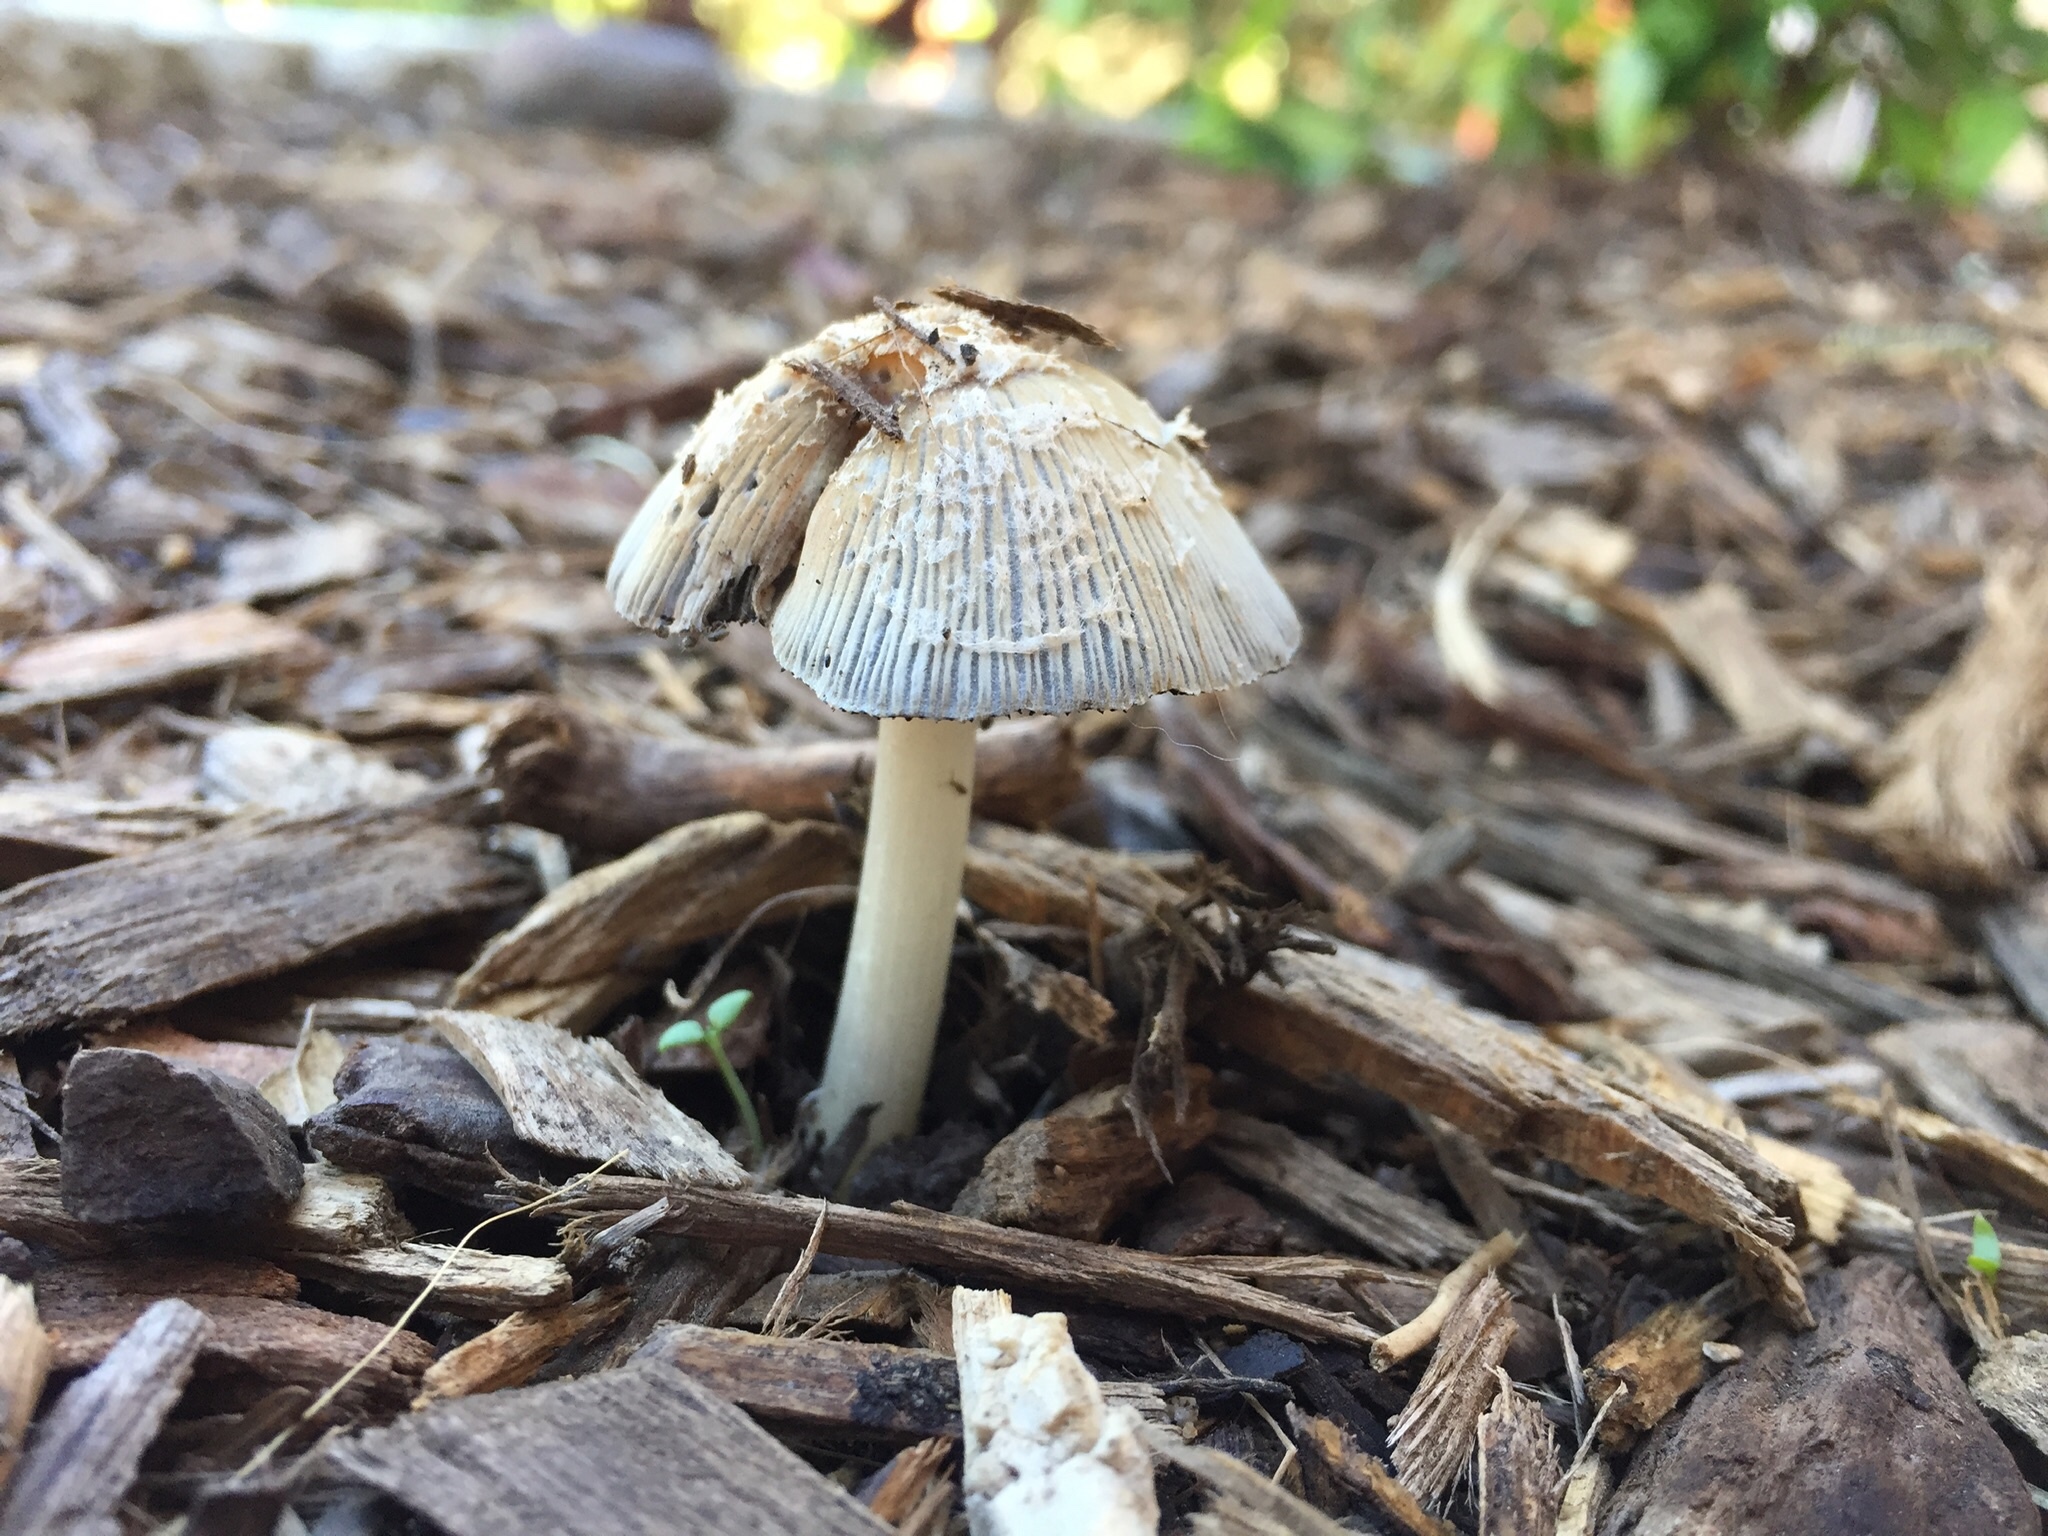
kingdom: Fungi
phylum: Basidiomycota
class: Agaricomycetes
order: Agaricales
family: Psathyrellaceae
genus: Coprinellus
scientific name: Coprinellus flocculosus
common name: Flocculose inkcap
